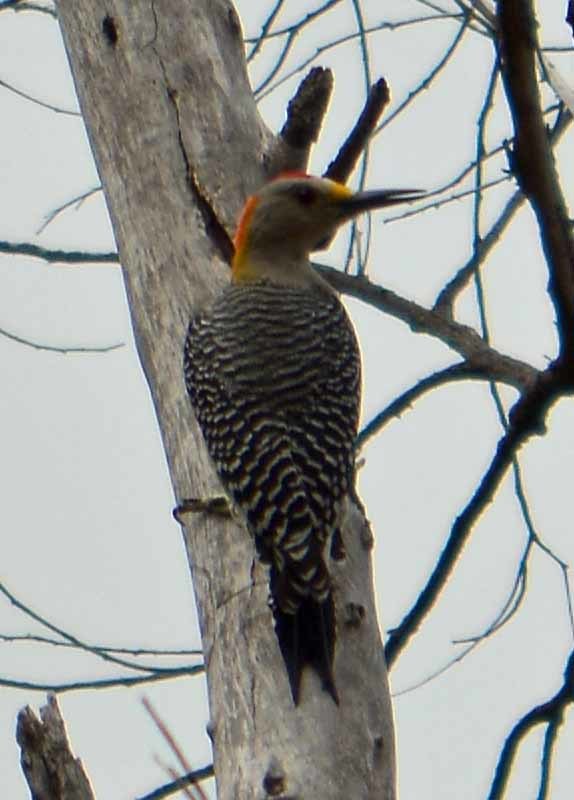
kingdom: Animalia
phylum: Chordata
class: Aves
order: Piciformes
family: Picidae
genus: Melanerpes
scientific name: Melanerpes aurifrons
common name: Golden-fronted woodpecker
